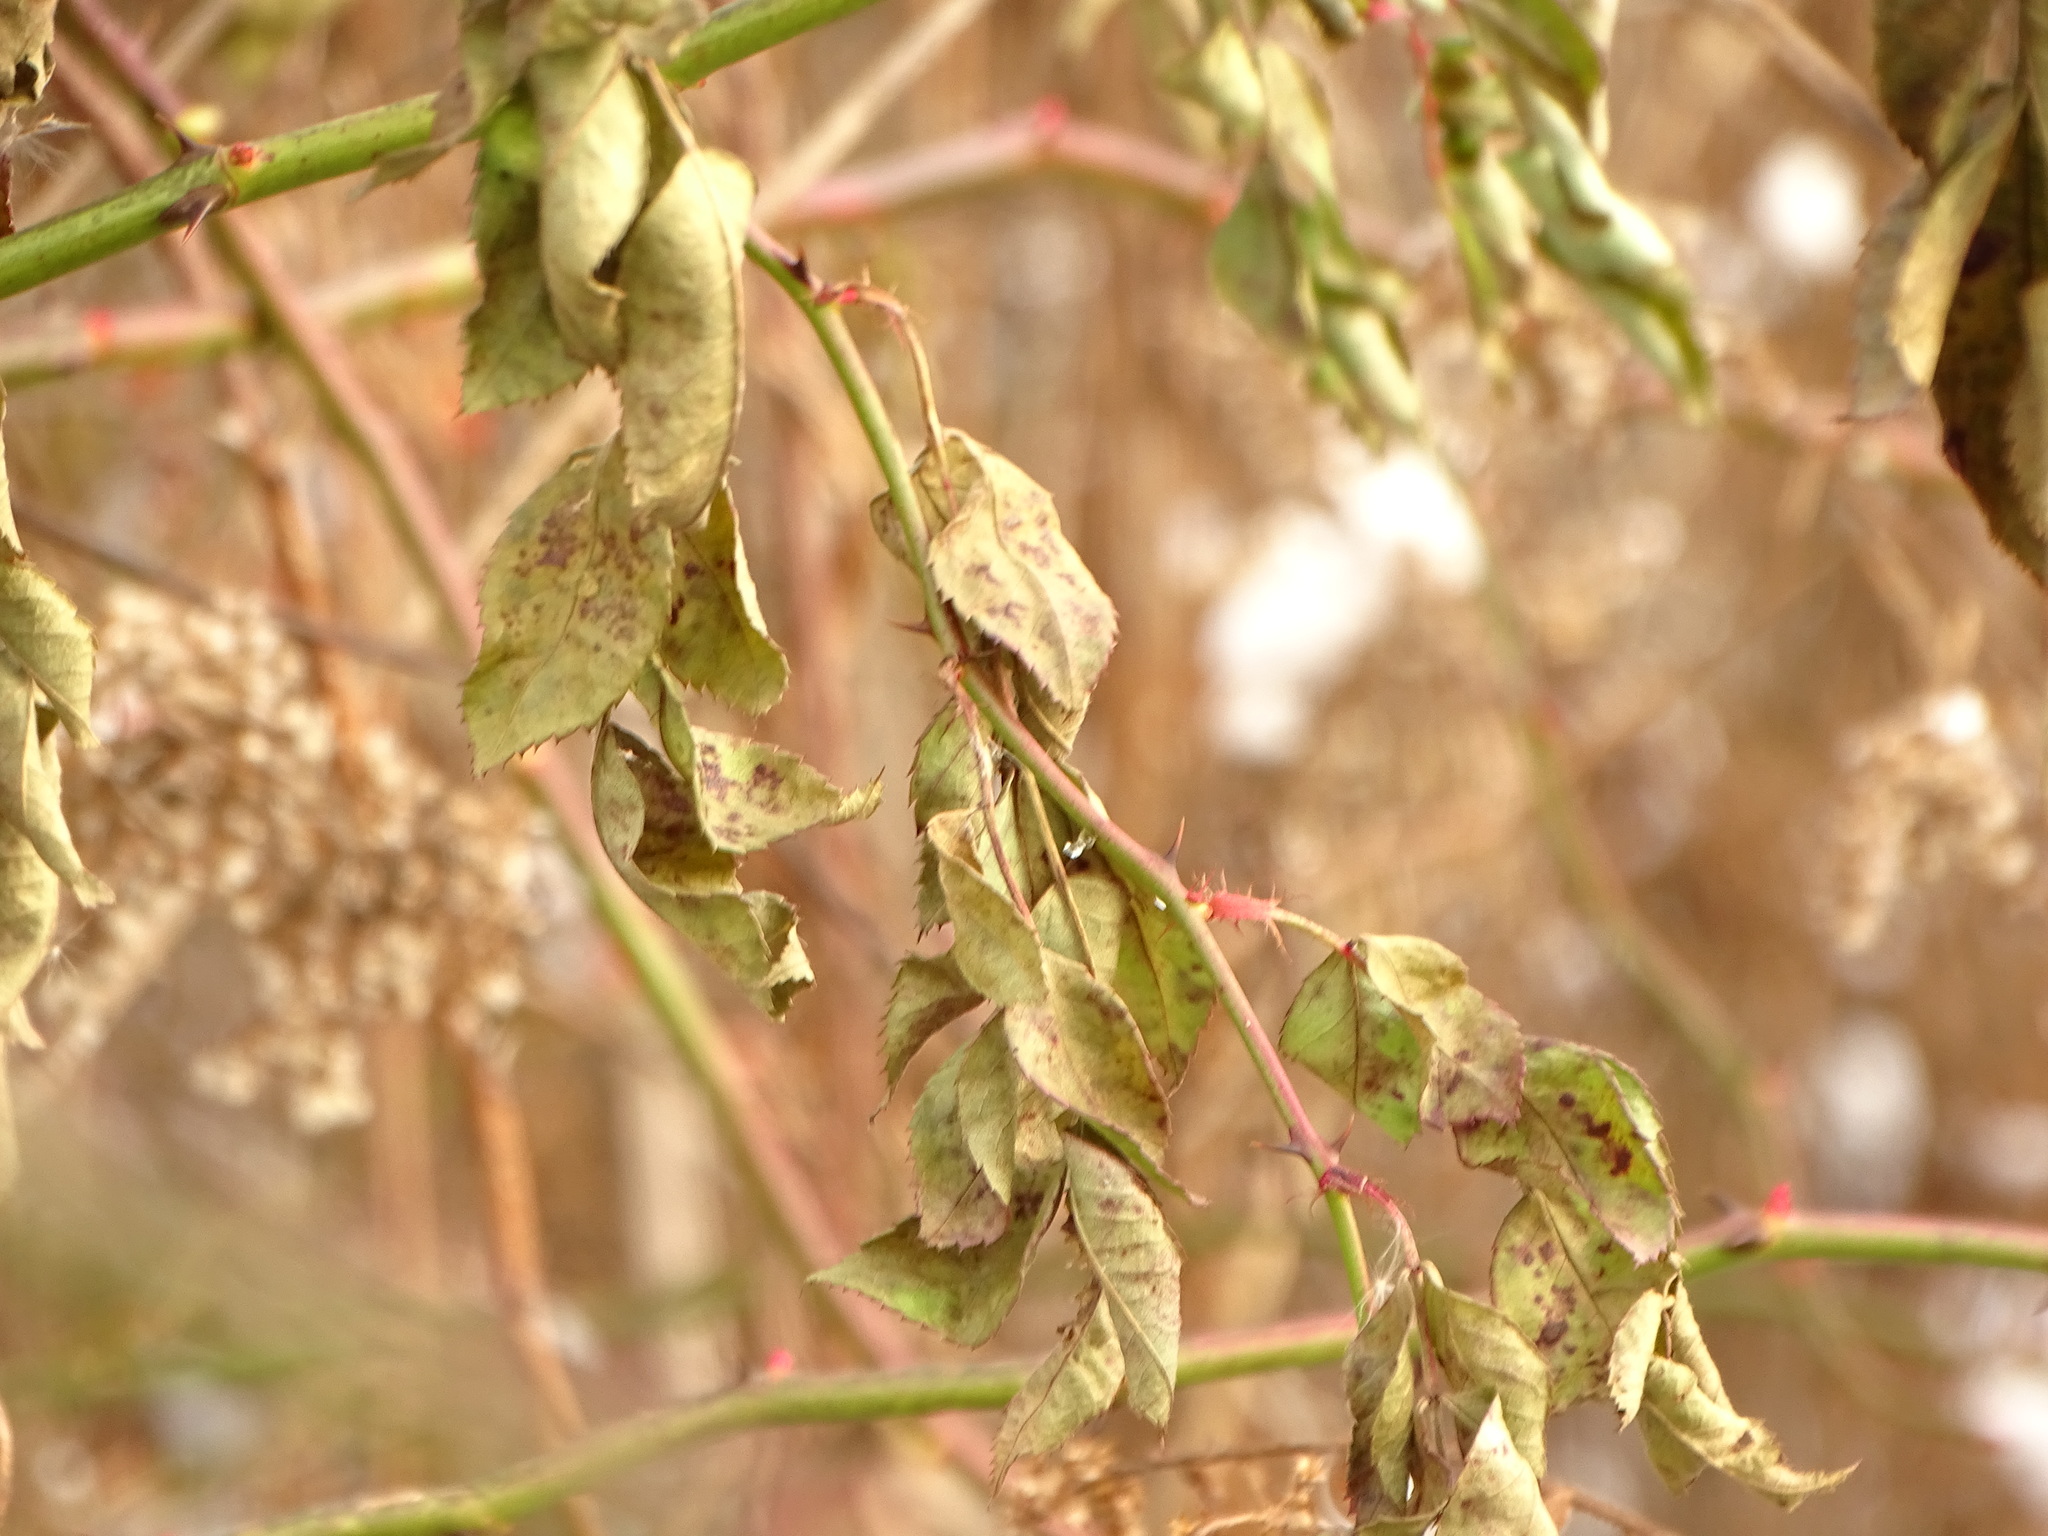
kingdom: Plantae
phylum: Tracheophyta
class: Magnoliopsida
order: Rosales
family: Rosaceae
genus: Rosa
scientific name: Rosa multiflora
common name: Multiflora rose
